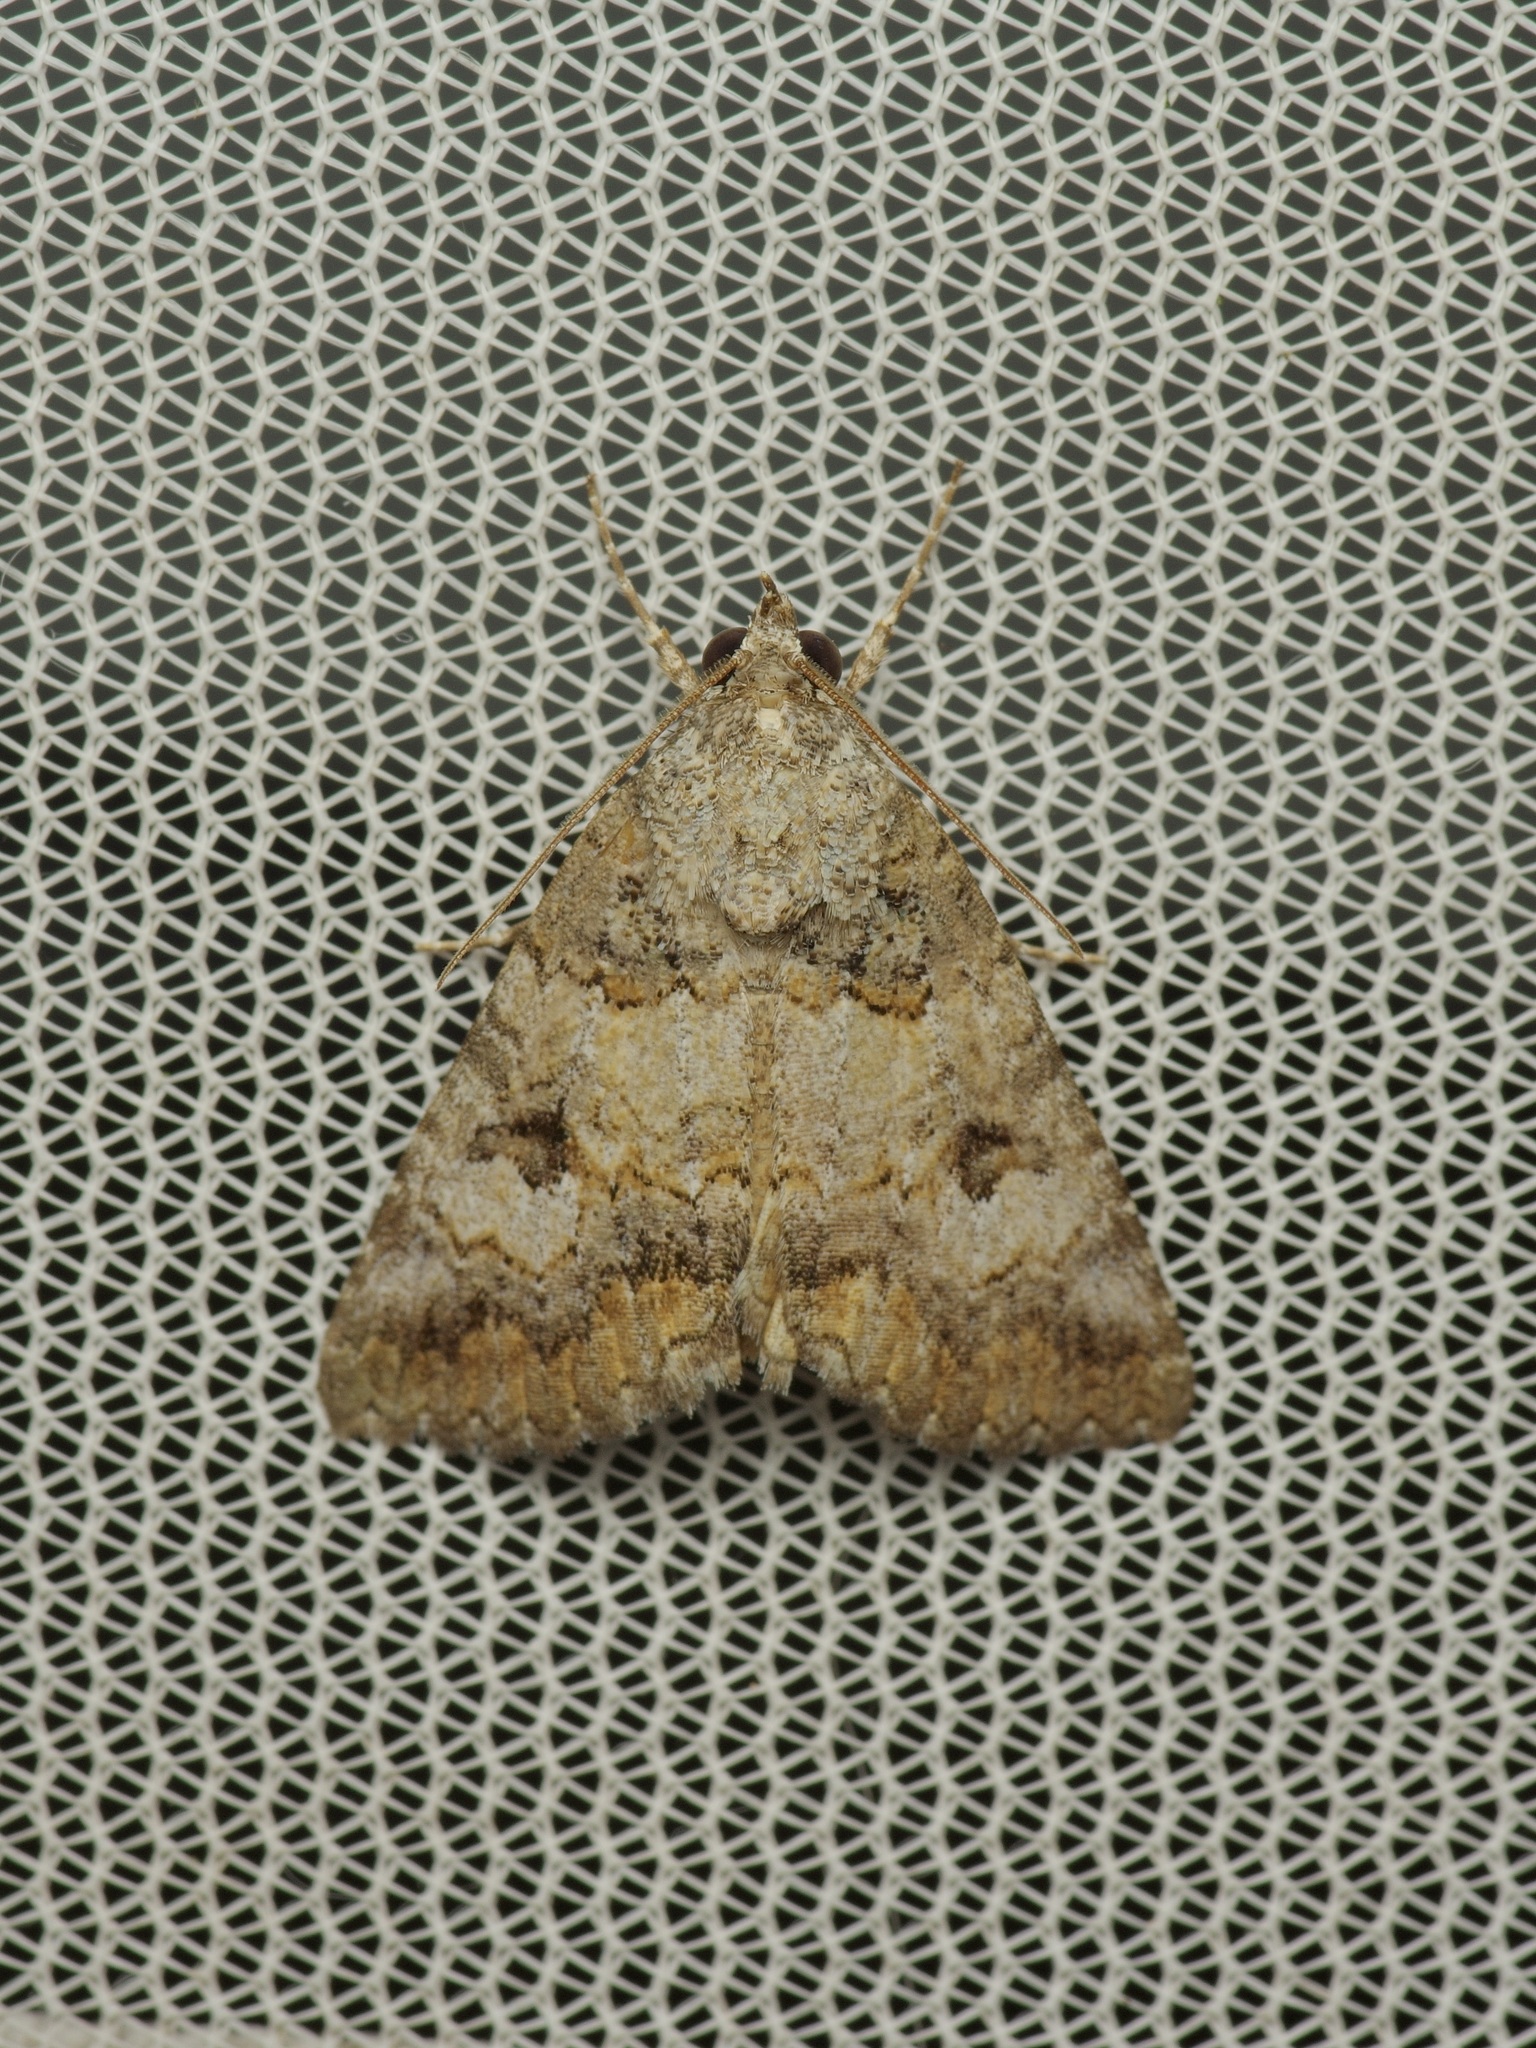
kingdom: Animalia
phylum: Arthropoda
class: Insecta
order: Lepidoptera
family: Erebidae
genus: Eubolina
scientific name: Eubolina impartialis
